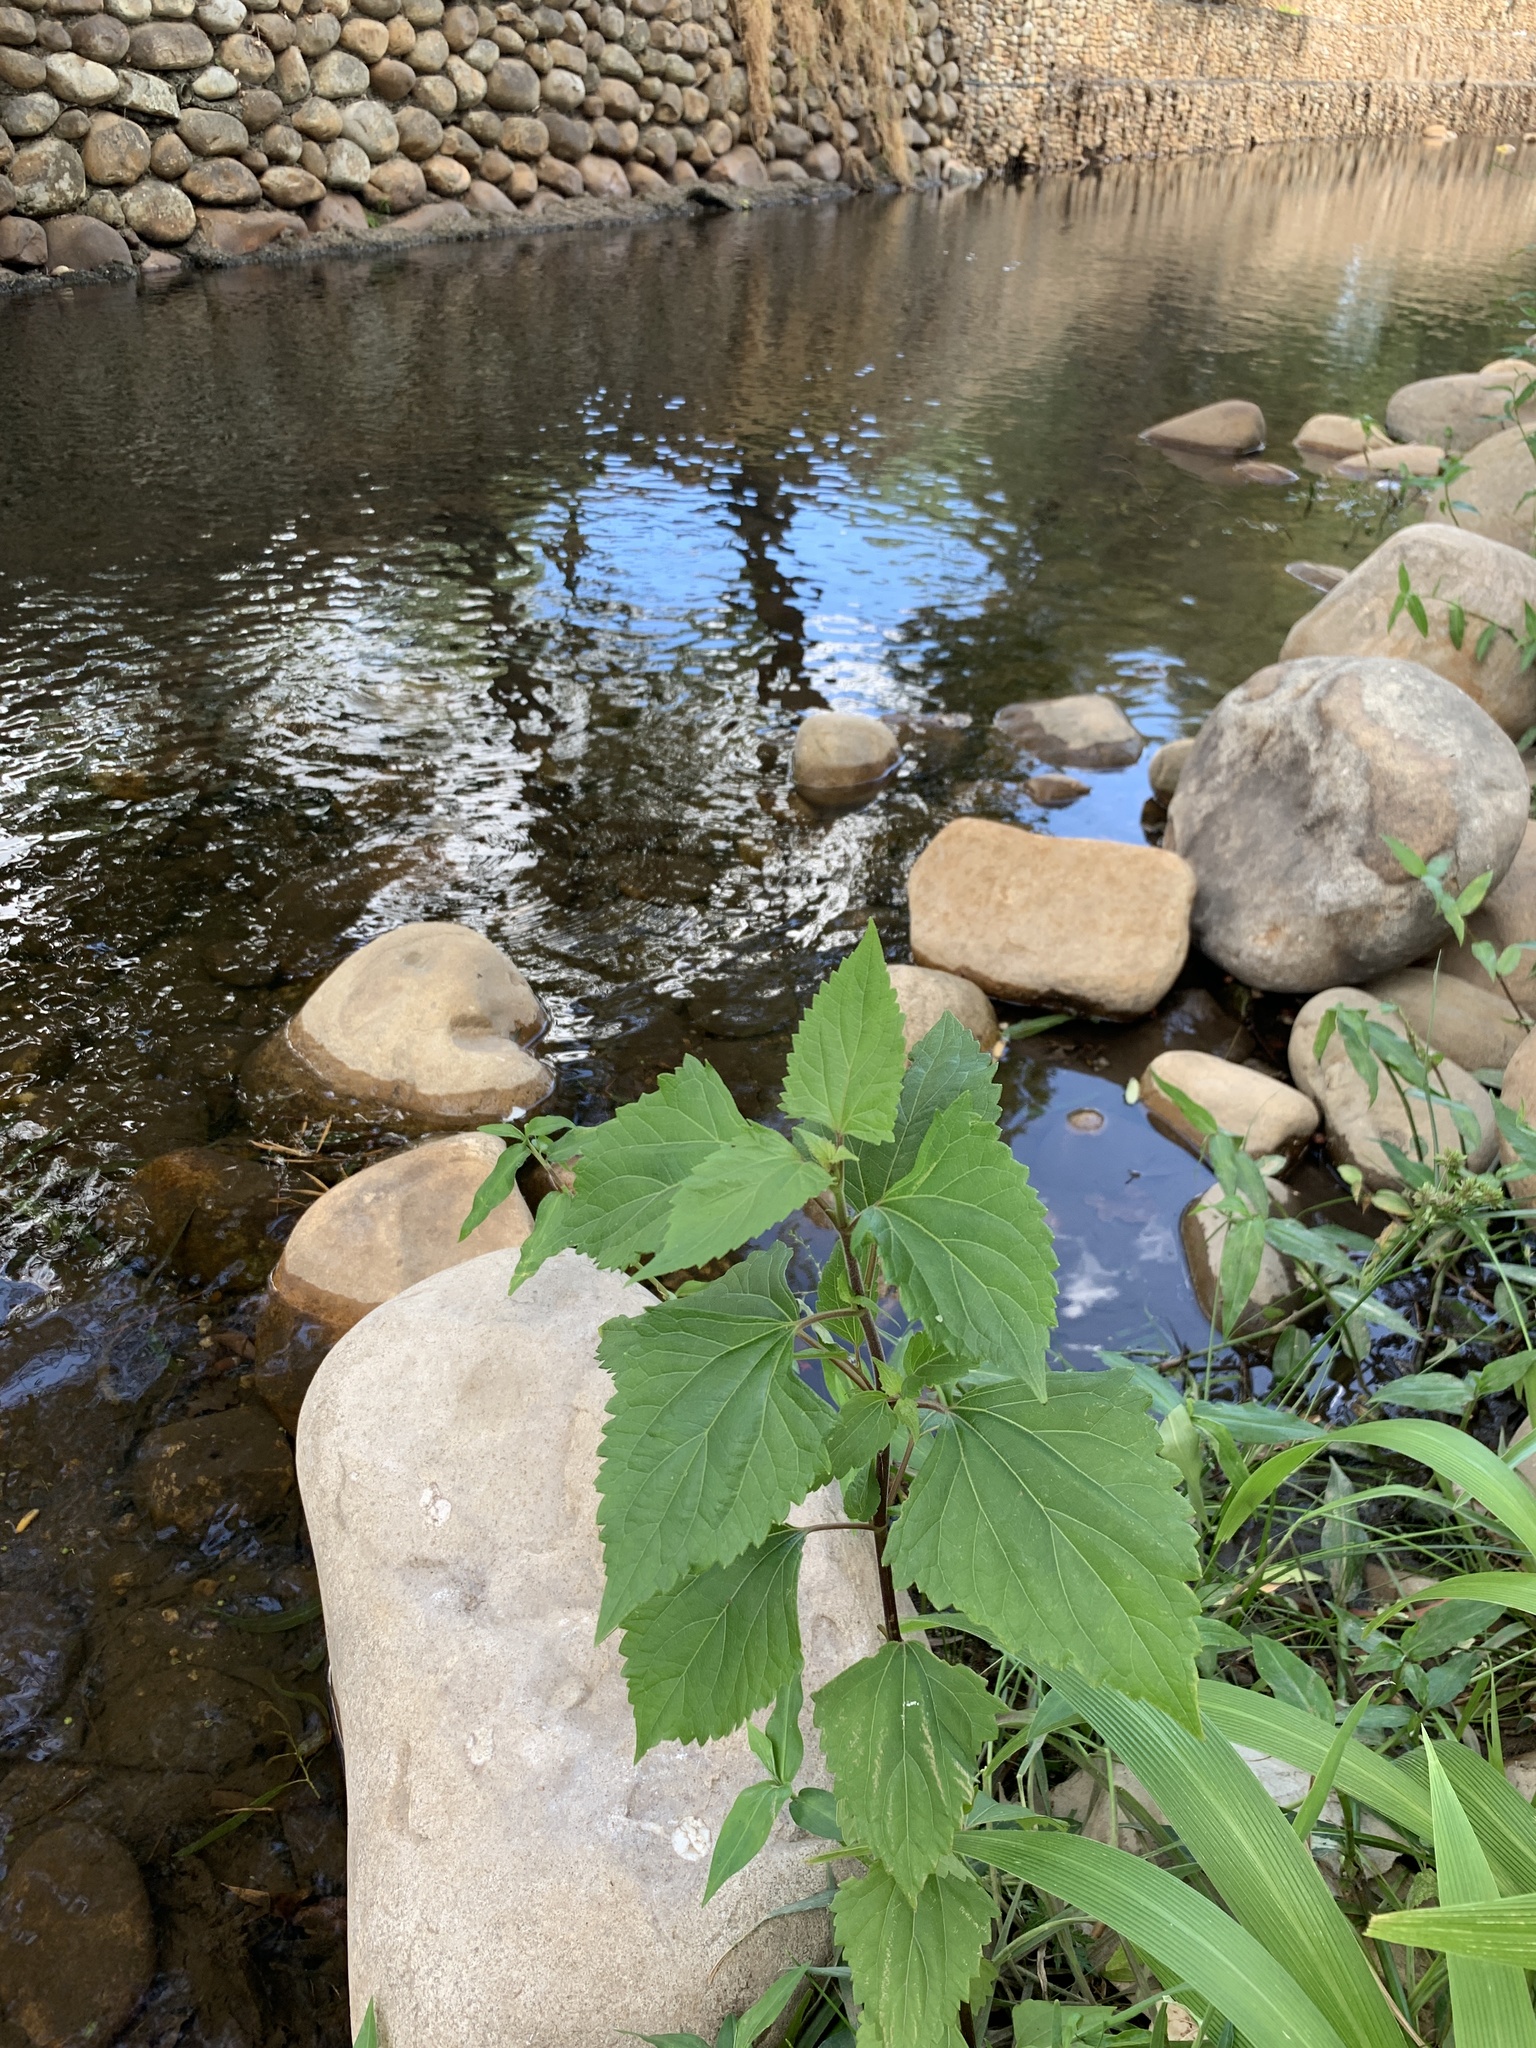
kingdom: Plantae
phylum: Tracheophyta
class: Magnoliopsida
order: Asterales
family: Asteraceae
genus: Ageratina
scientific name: Ageratina adenophora
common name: Sticky snakeroot
